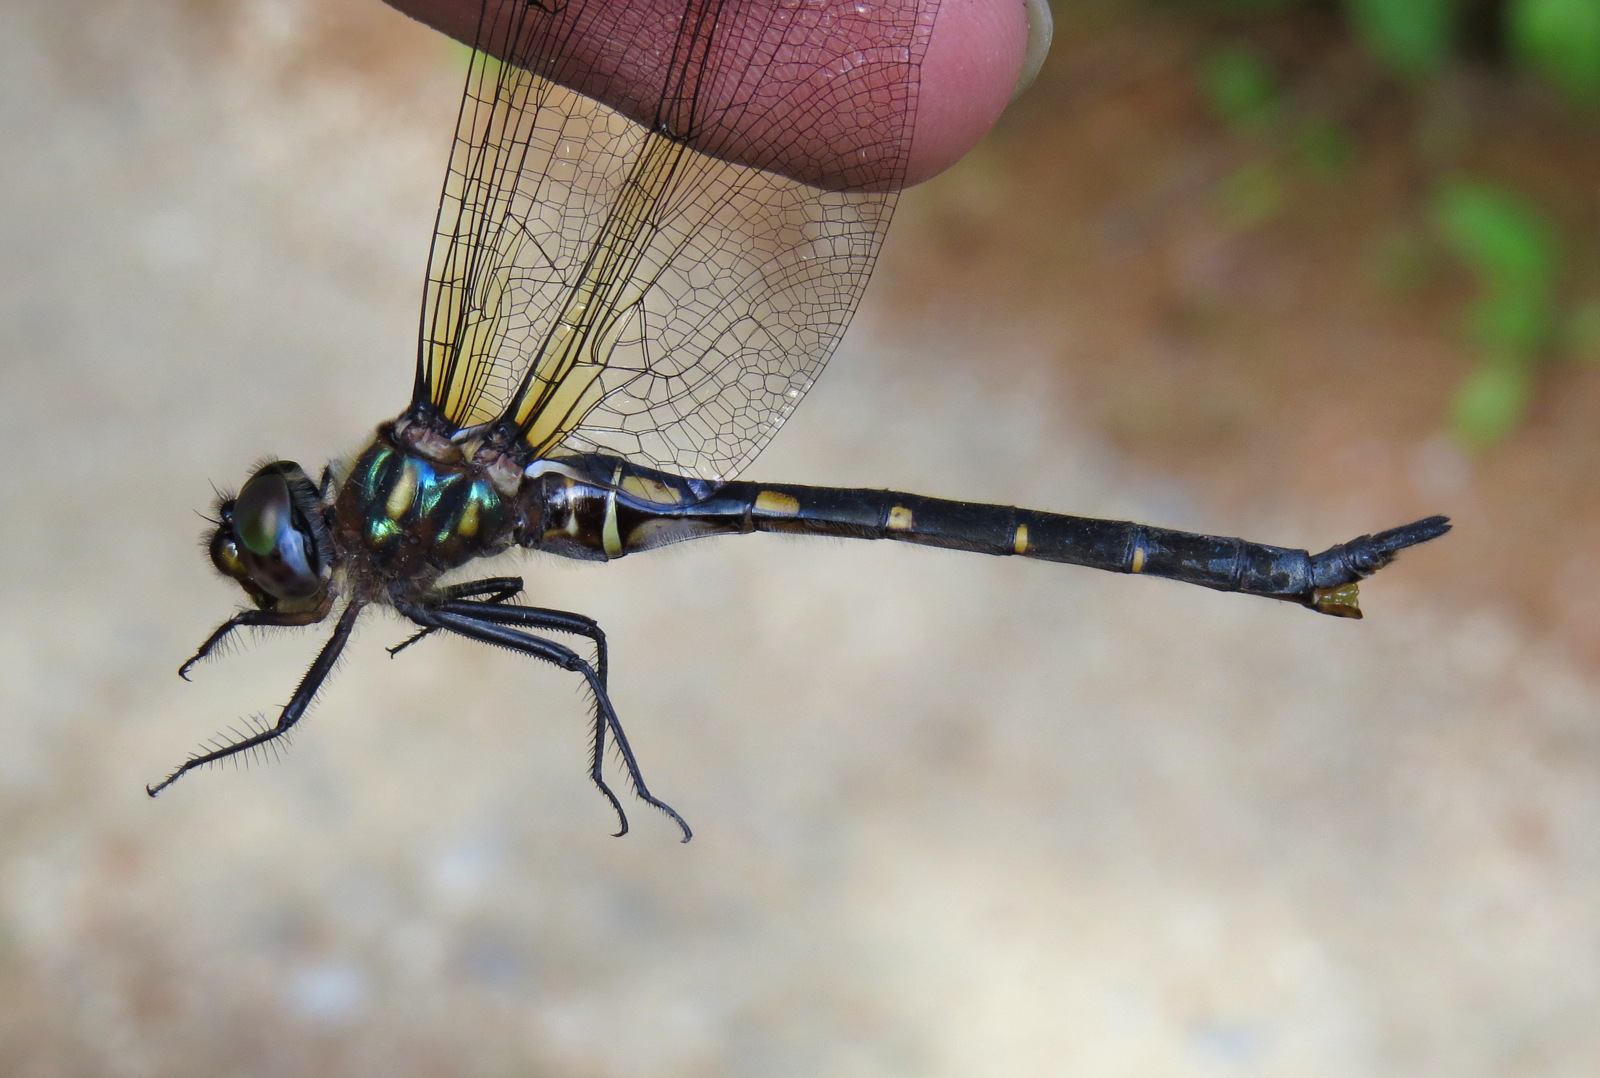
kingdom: Animalia
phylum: Arthropoda
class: Insecta
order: Odonata
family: Corduliidae
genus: Somatochlora
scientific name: Somatochlora forcipata
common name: Forcipate emerald
